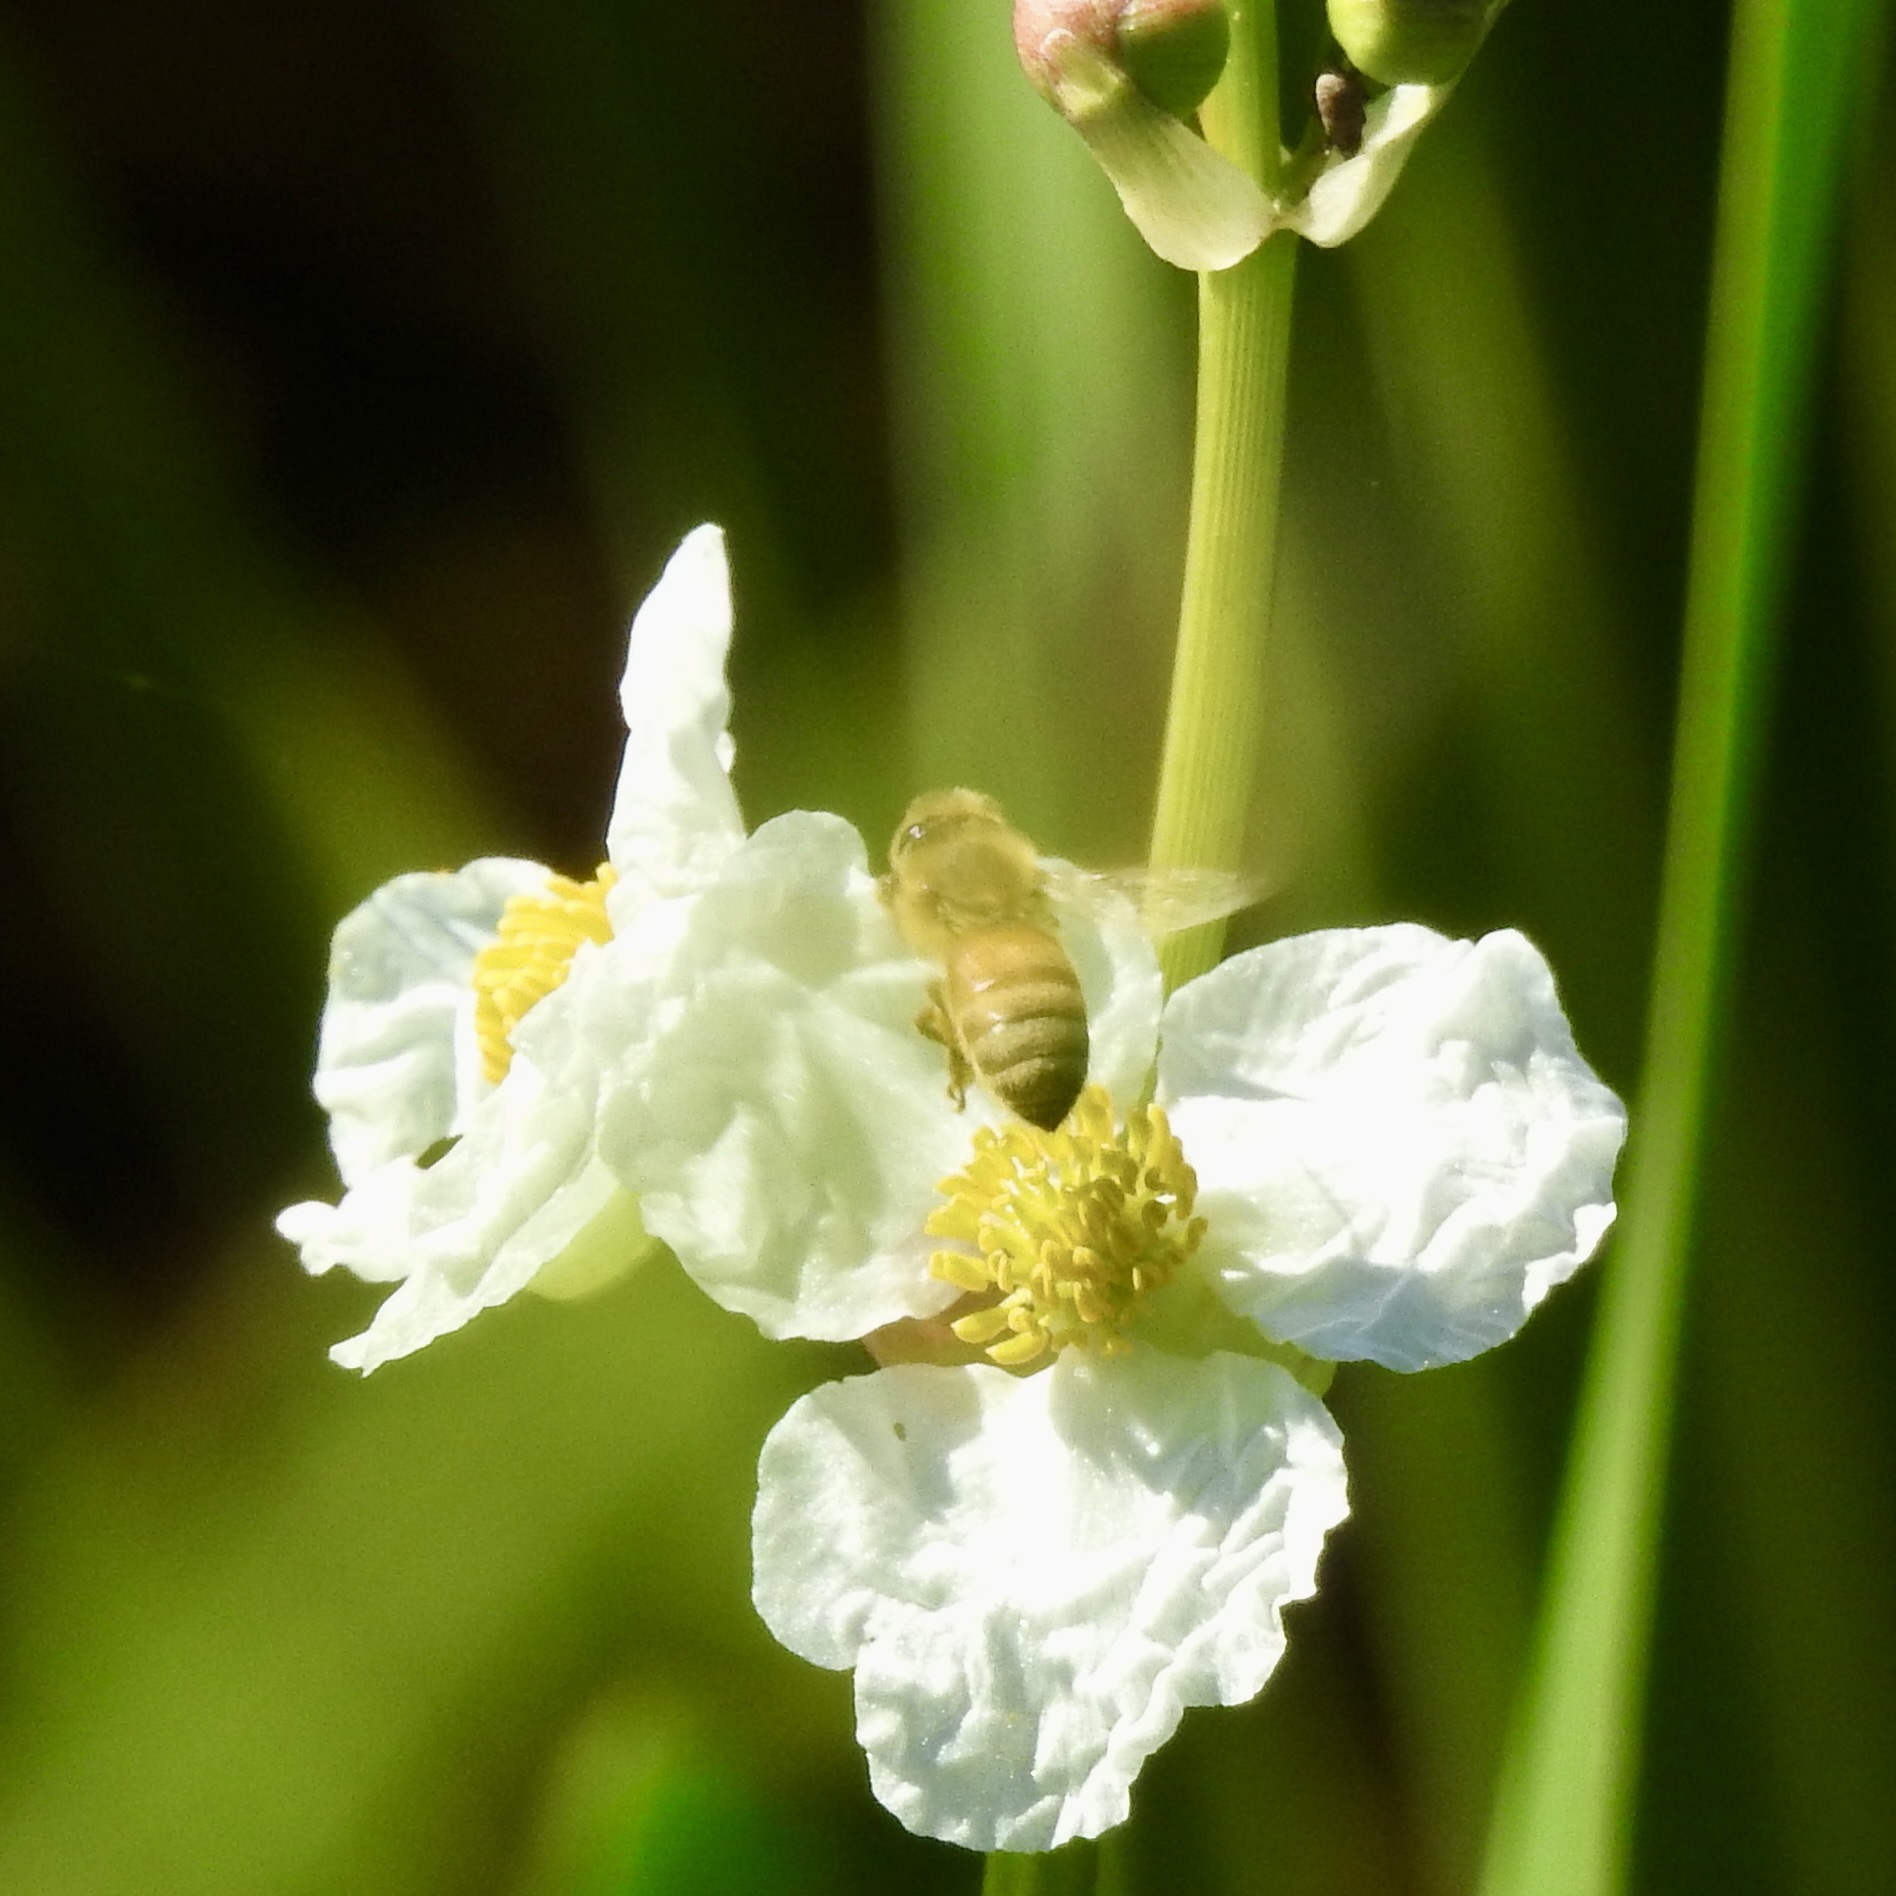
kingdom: Animalia
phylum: Arthropoda
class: Insecta
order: Hymenoptera
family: Apidae
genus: Apis
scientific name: Apis mellifera
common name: Honey bee
